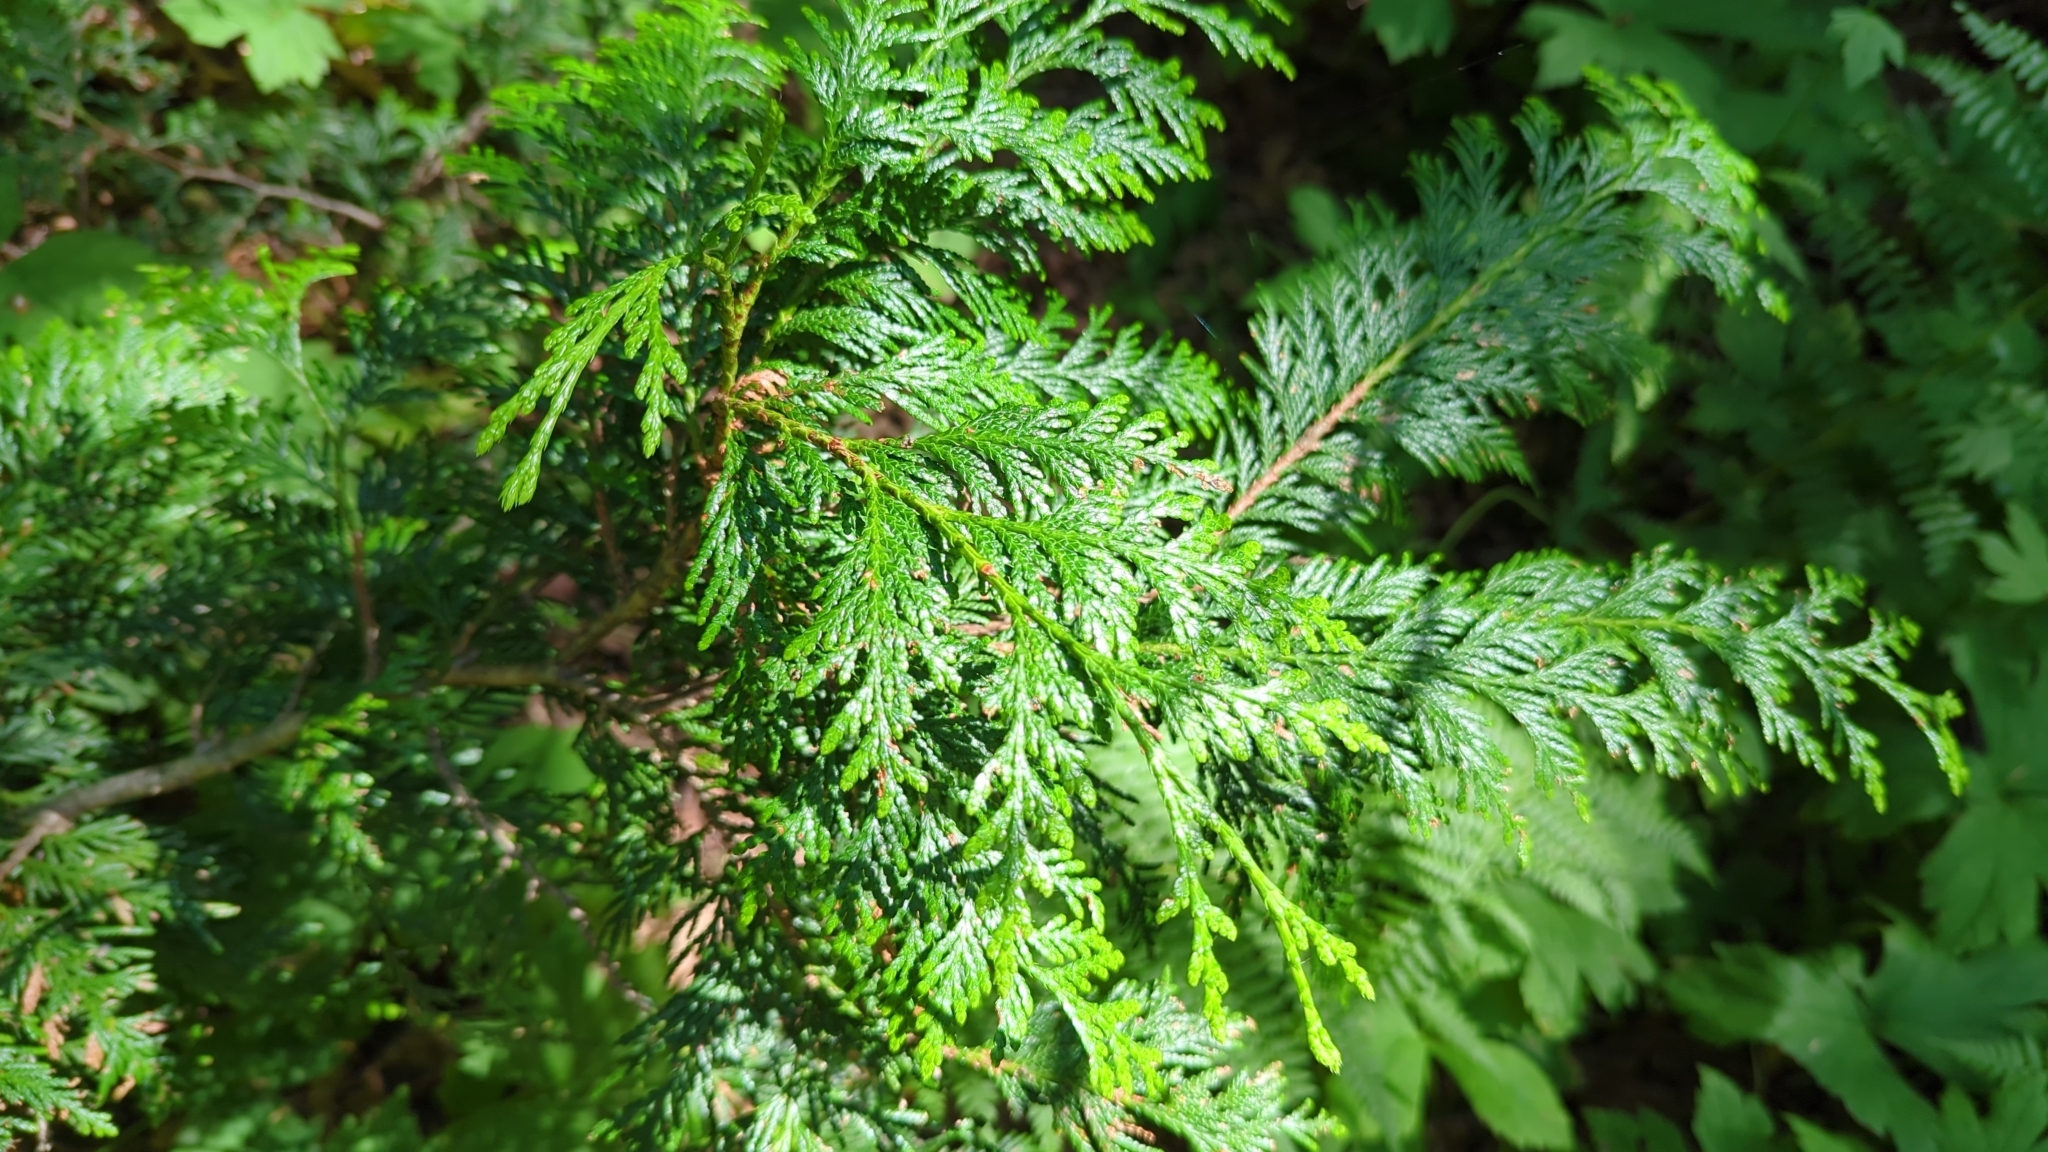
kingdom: Plantae
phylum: Tracheophyta
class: Pinopsida
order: Pinales
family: Cupressaceae
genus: Thuja
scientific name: Thuja plicata
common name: Western red-cedar
